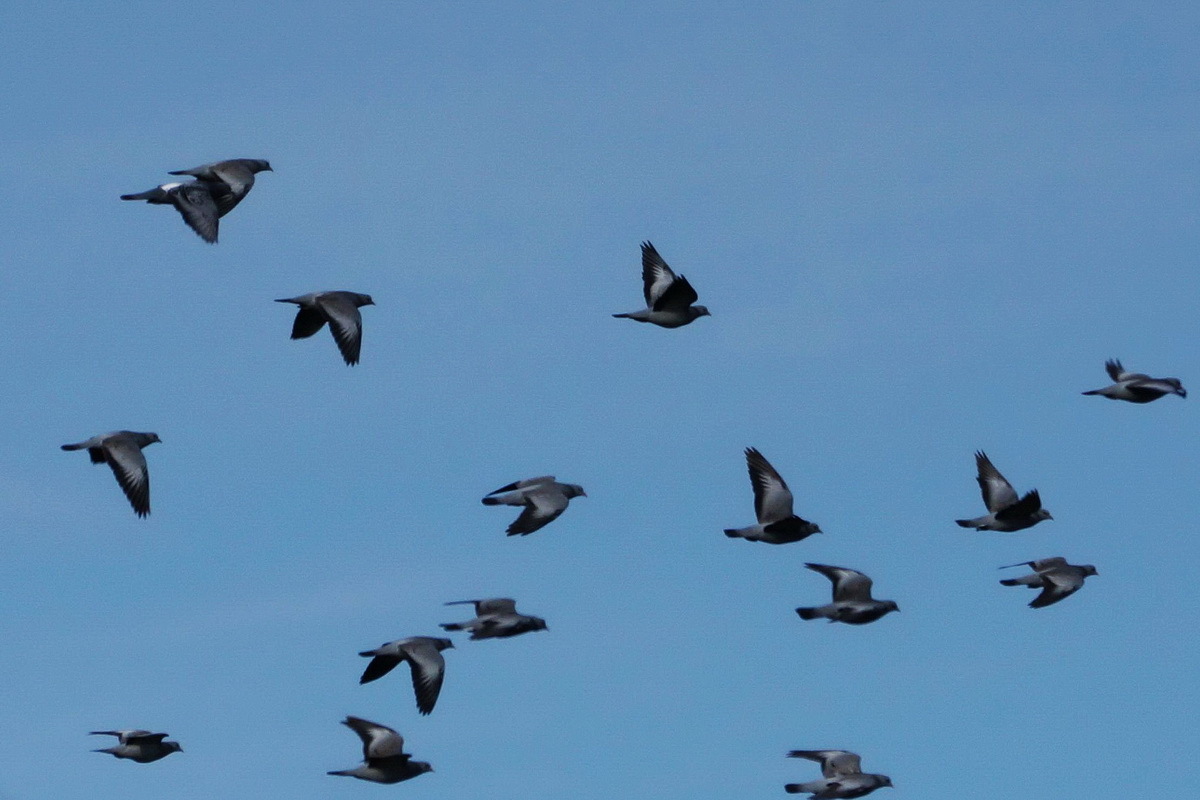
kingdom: Animalia
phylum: Chordata
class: Aves
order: Columbiformes
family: Columbidae
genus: Columba
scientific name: Columba oenas
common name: Stock dove
